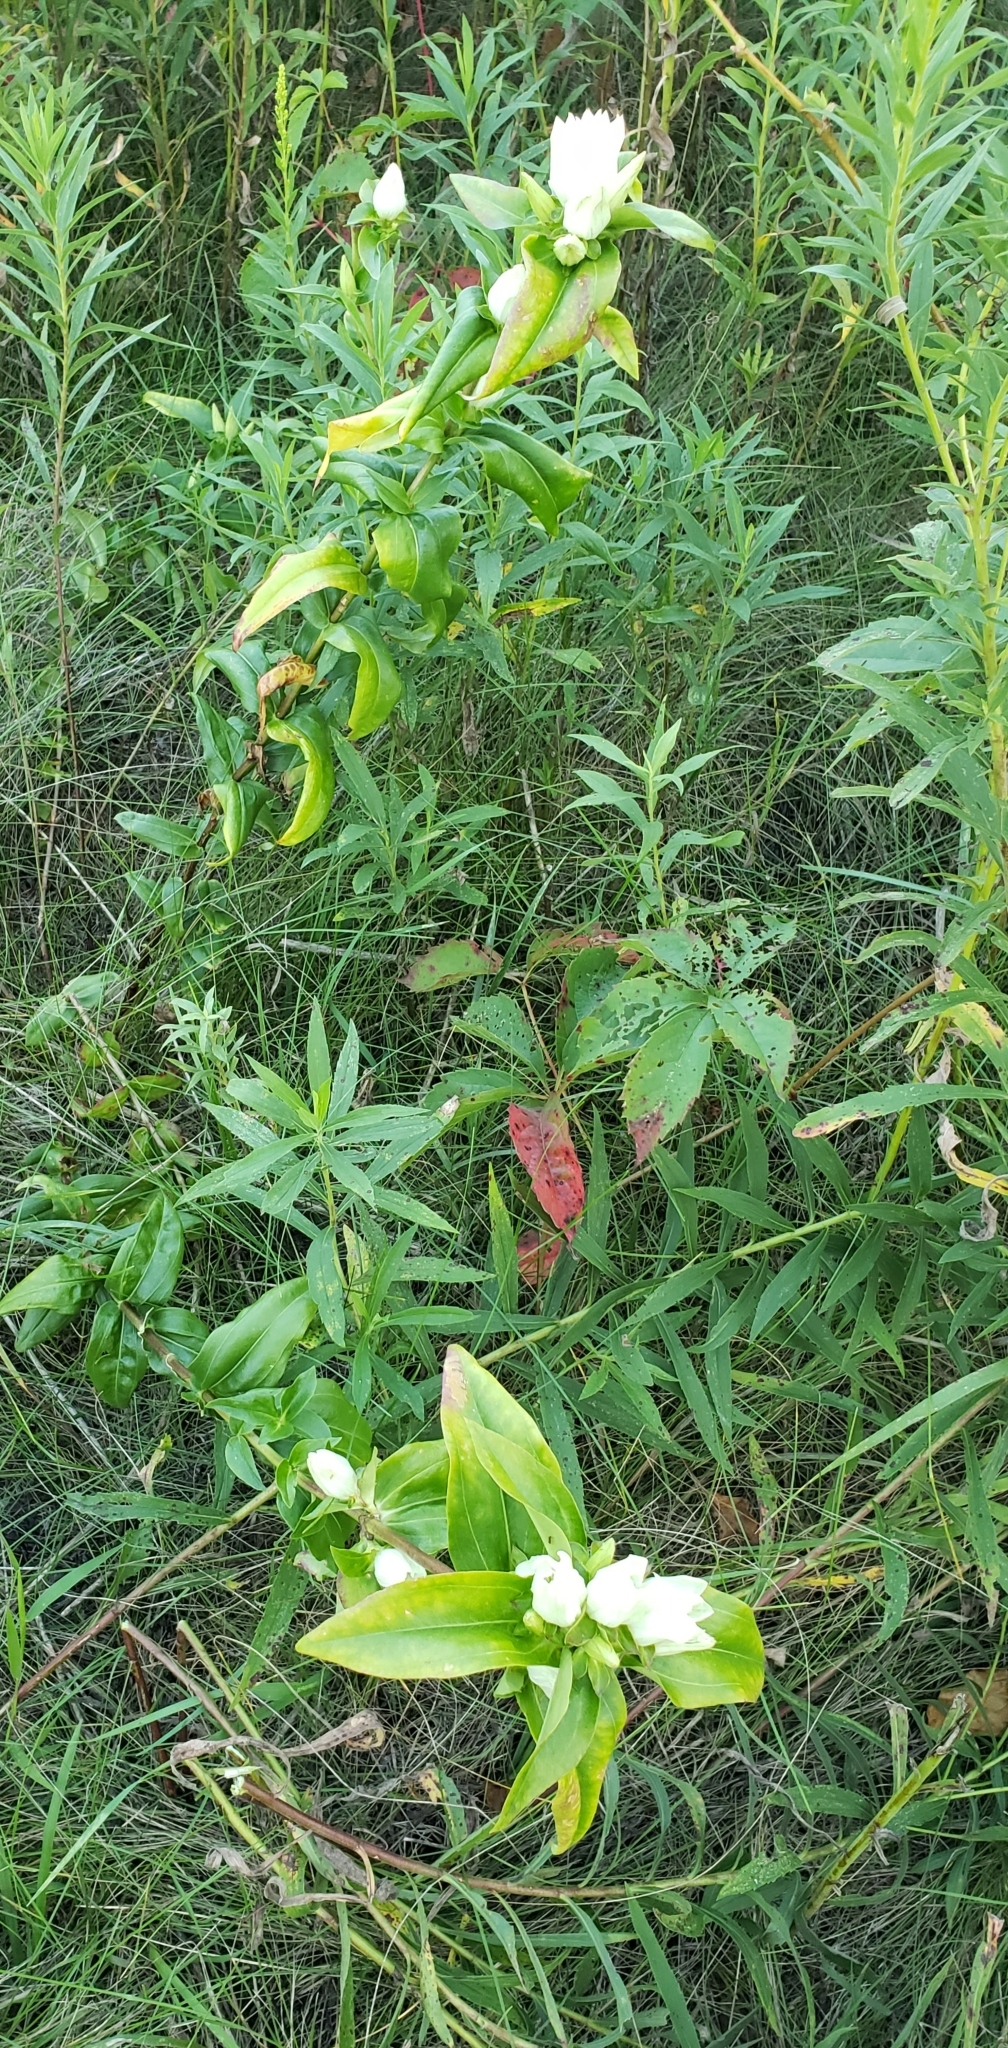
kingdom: Plantae
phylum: Tracheophyta
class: Magnoliopsida
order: Gentianales
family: Gentianaceae
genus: Gentiana
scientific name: Gentiana alba
